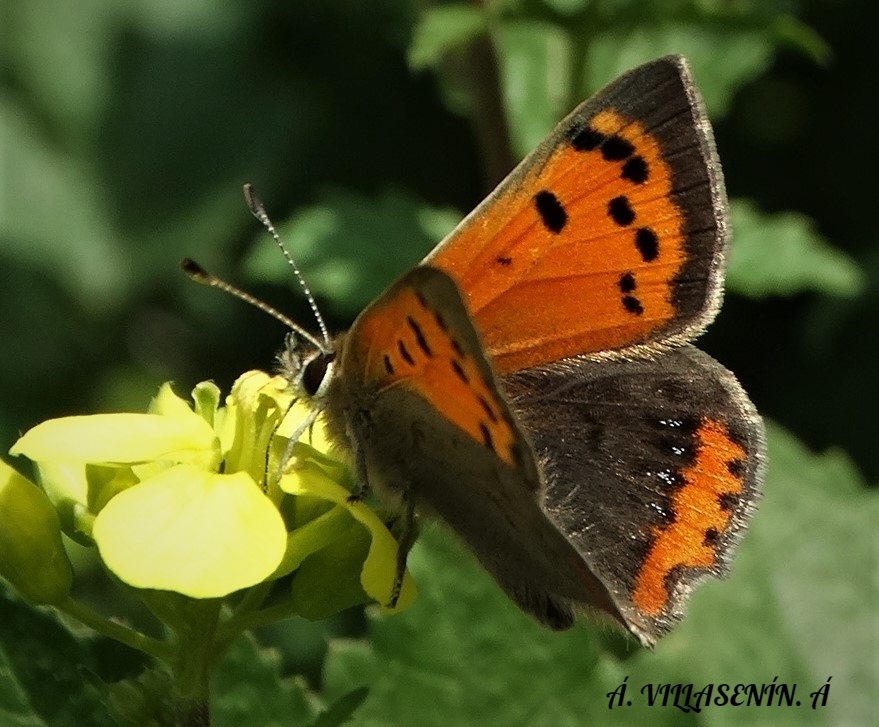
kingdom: Animalia
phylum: Arthropoda
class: Insecta
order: Lepidoptera
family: Lycaenidae
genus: Lycaena
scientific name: Lycaena phlaeas
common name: Small copper
